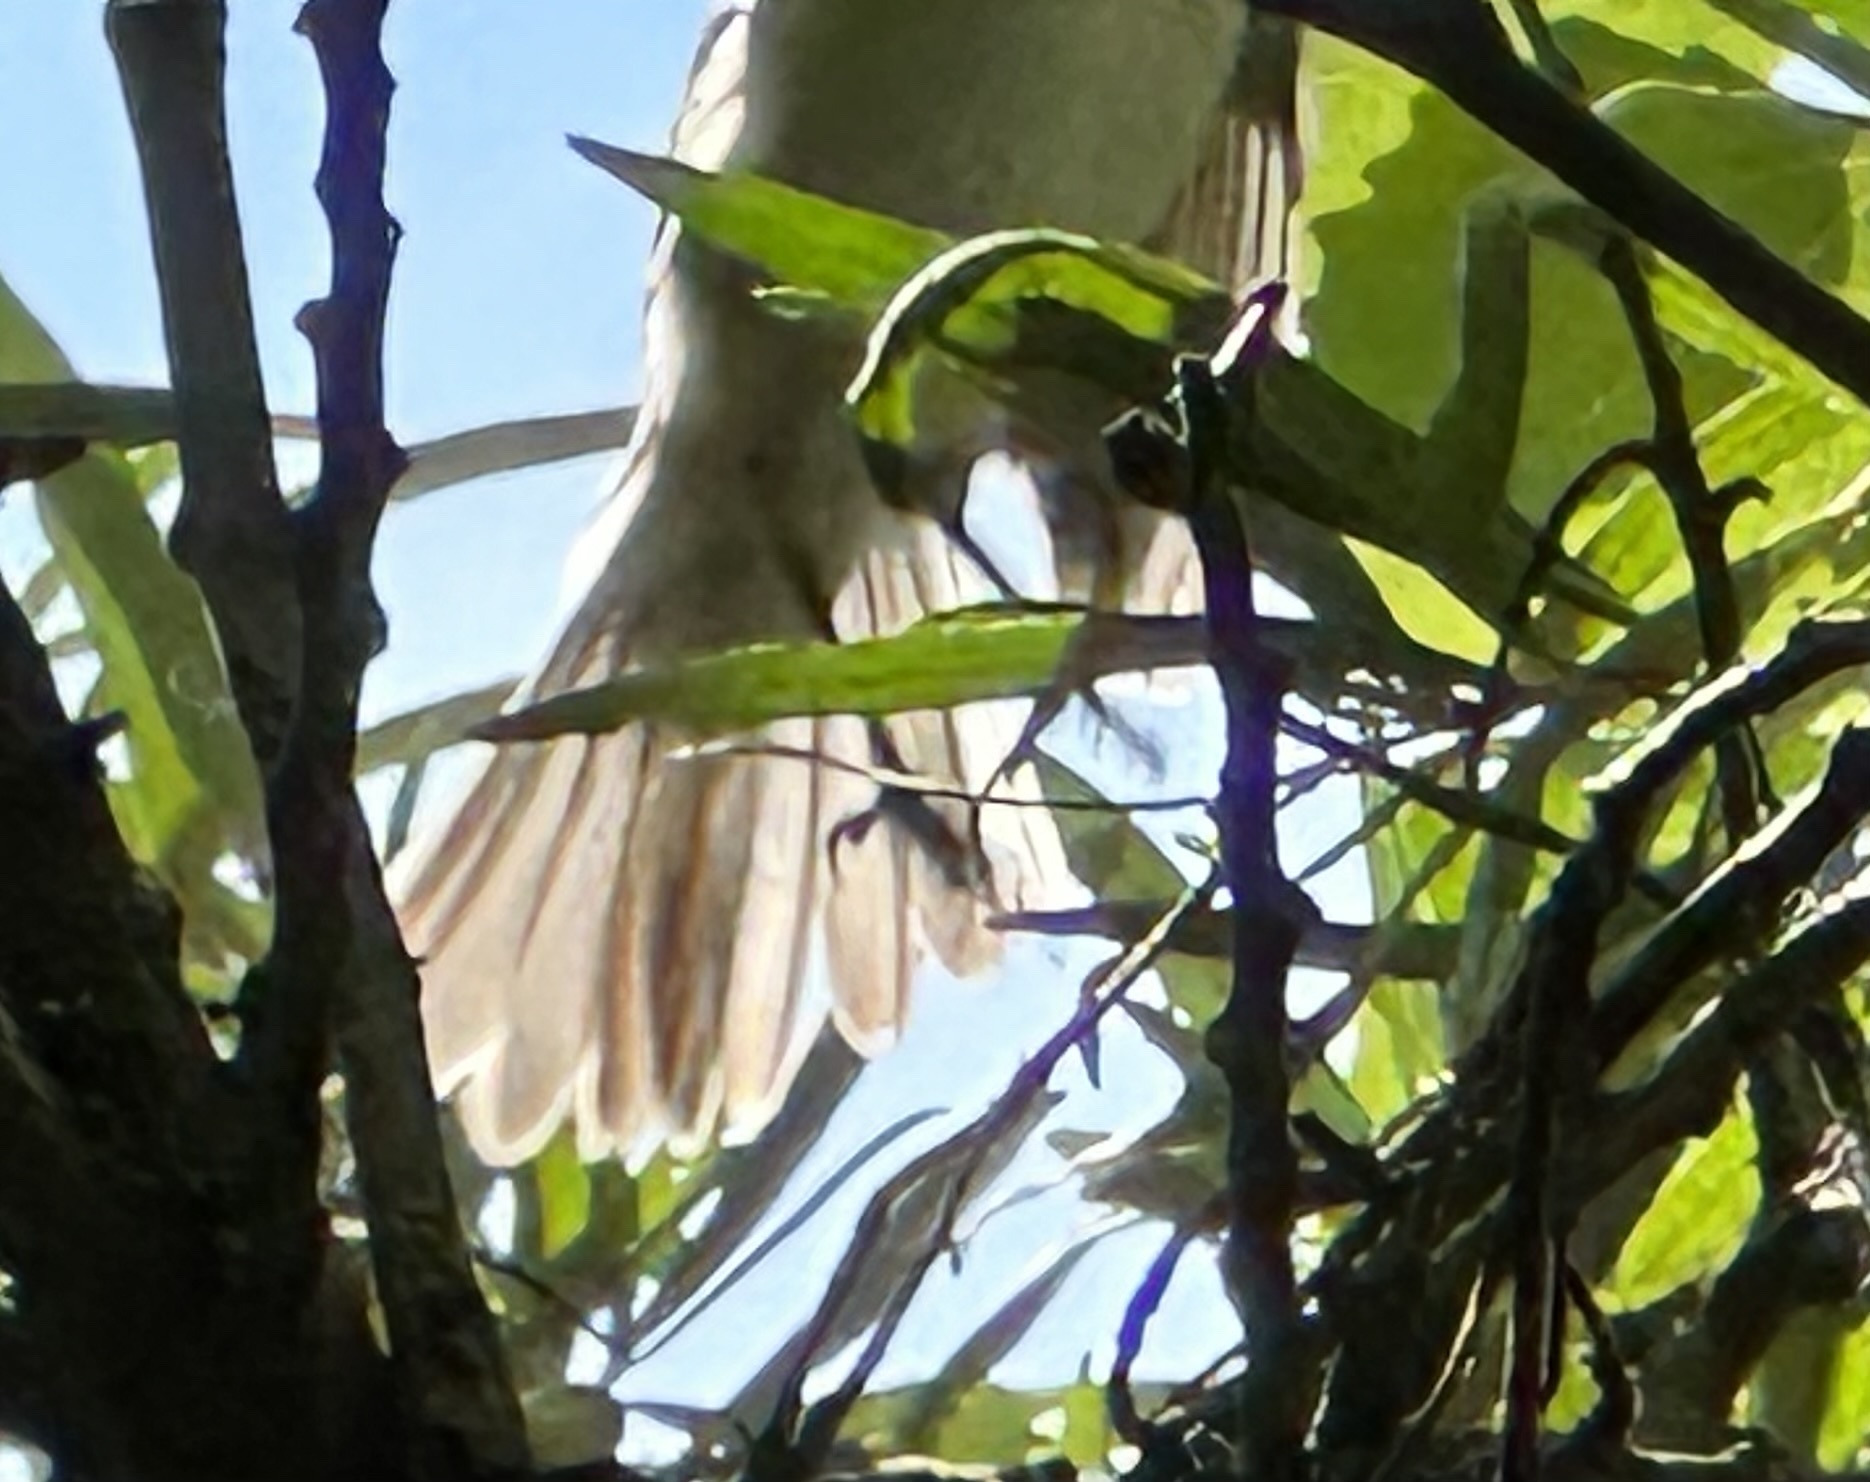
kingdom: Animalia
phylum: Chordata
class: Aves
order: Passeriformes
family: Sylviidae
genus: Sylvia
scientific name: Sylvia curruca
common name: Lesser whitethroat
